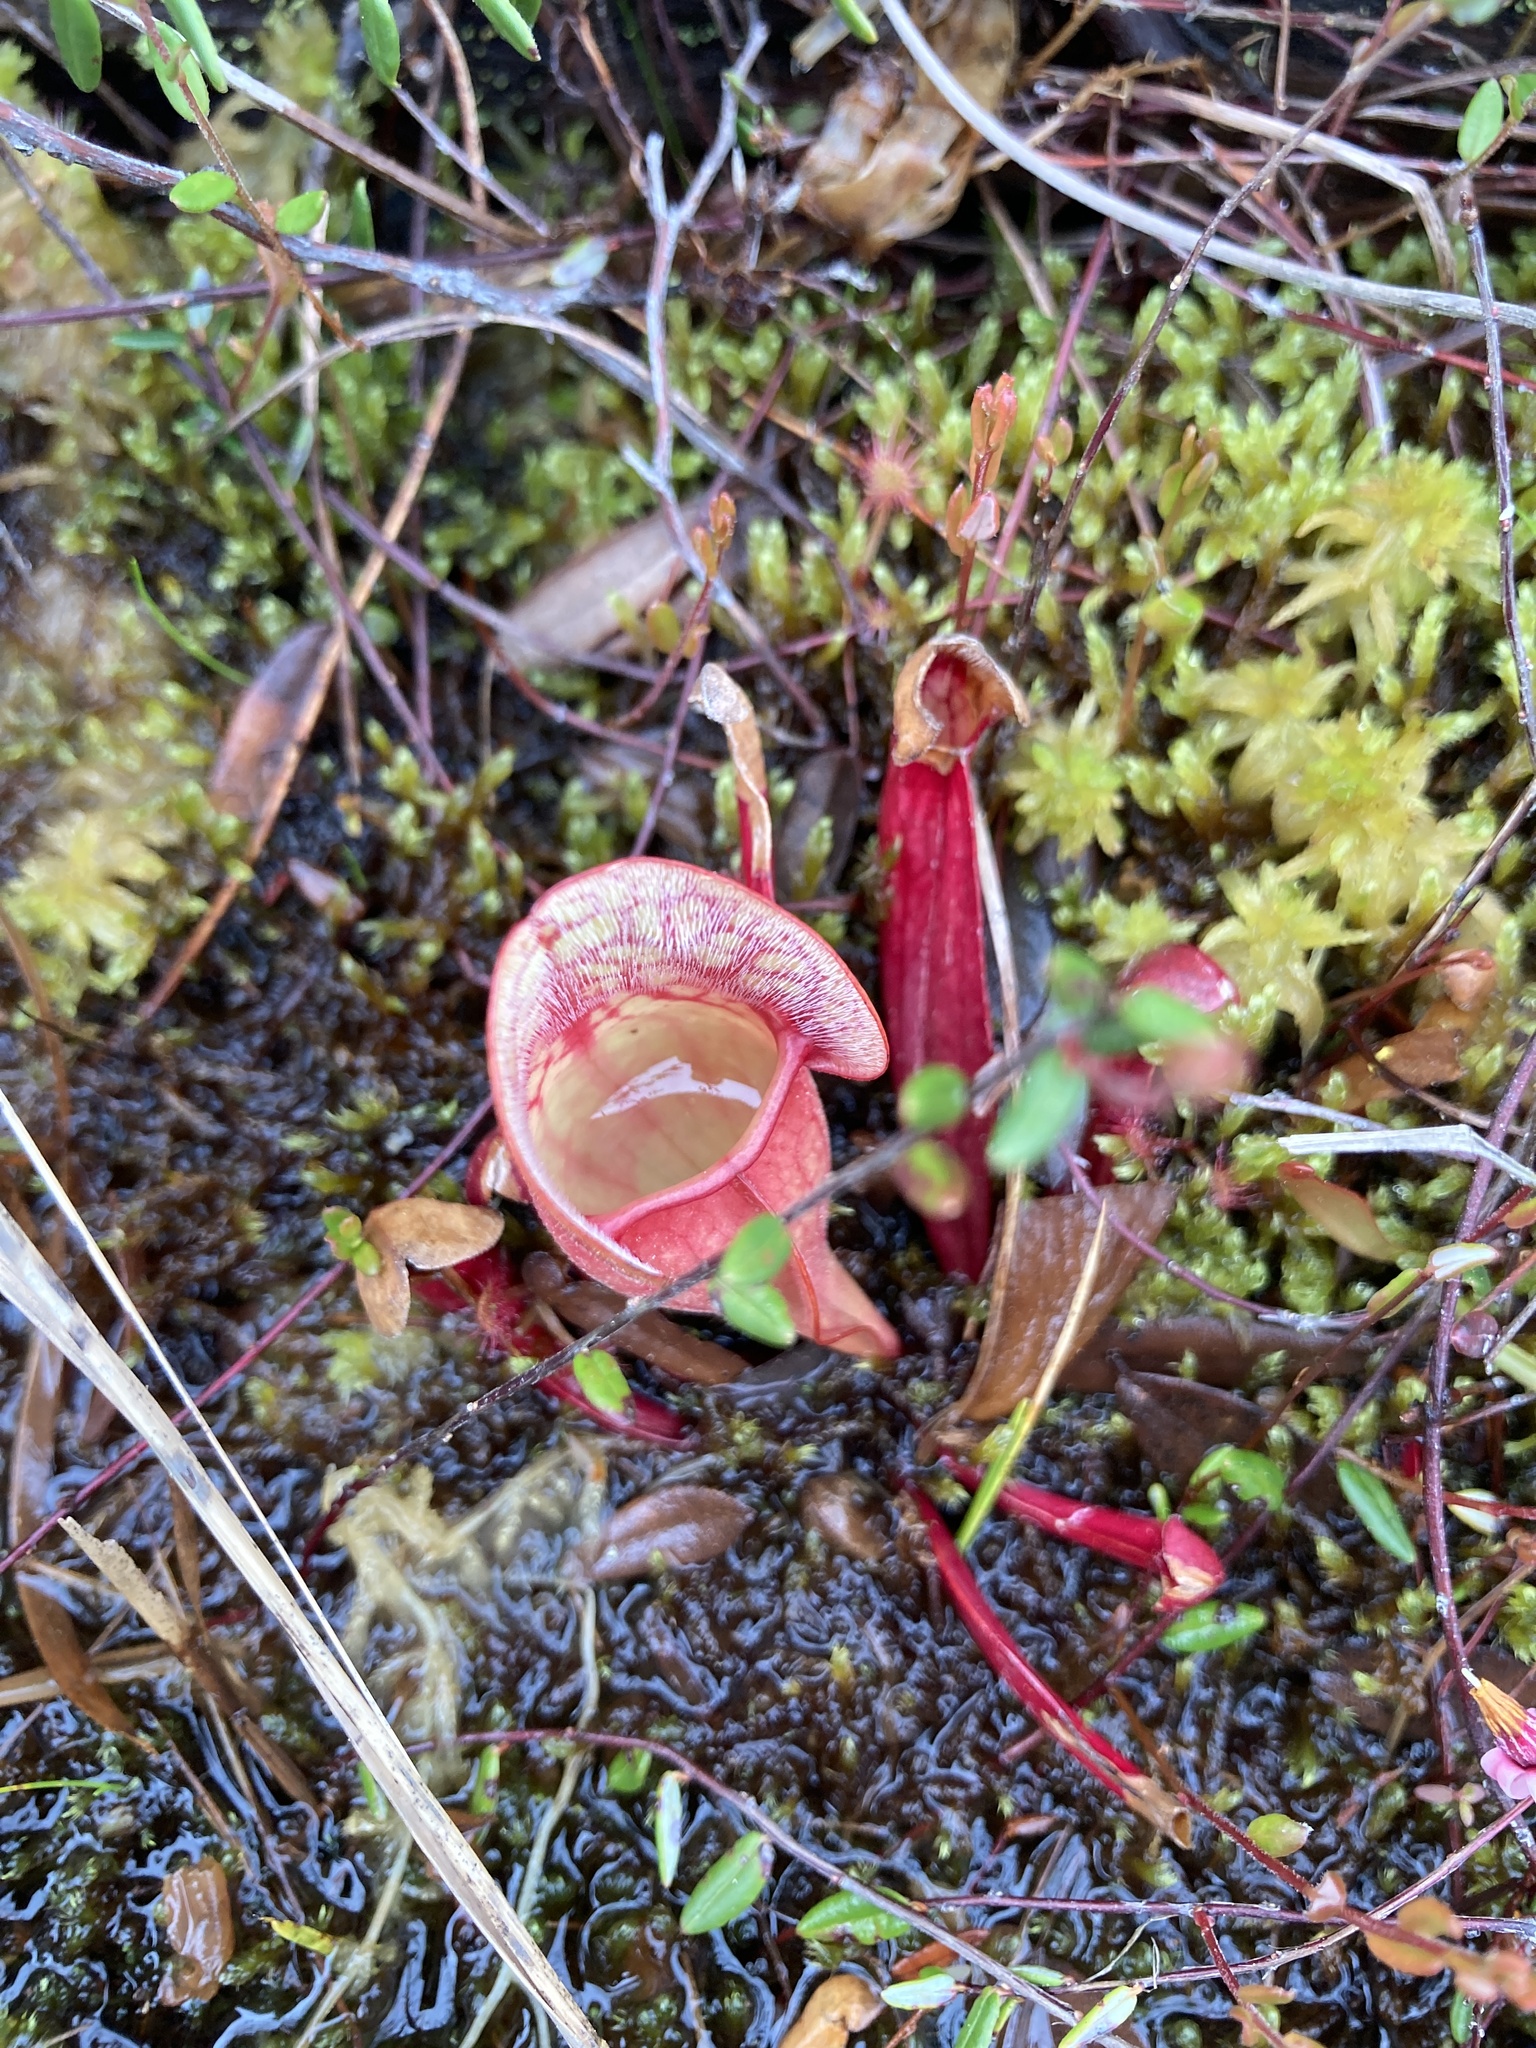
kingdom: Plantae
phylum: Tracheophyta
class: Magnoliopsida
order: Ericales
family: Sarraceniaceae
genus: Sarracenia
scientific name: Sarracenia purpurea
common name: Pitcherplant
